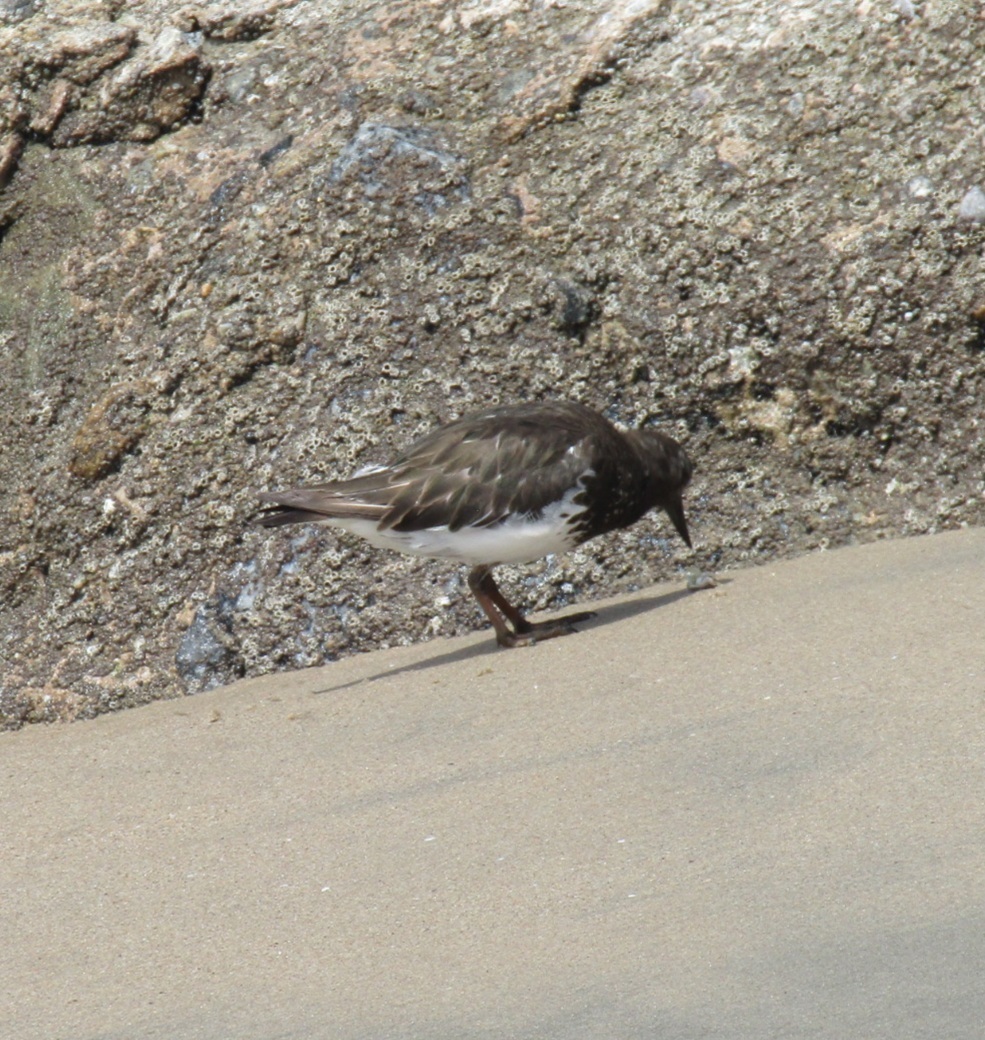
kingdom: Animalia
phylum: Chordata
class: Aves
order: Charadriiformes
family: Scolopacidae
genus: Arenaria
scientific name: Arenaria melanocephala
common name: Black turnstone
